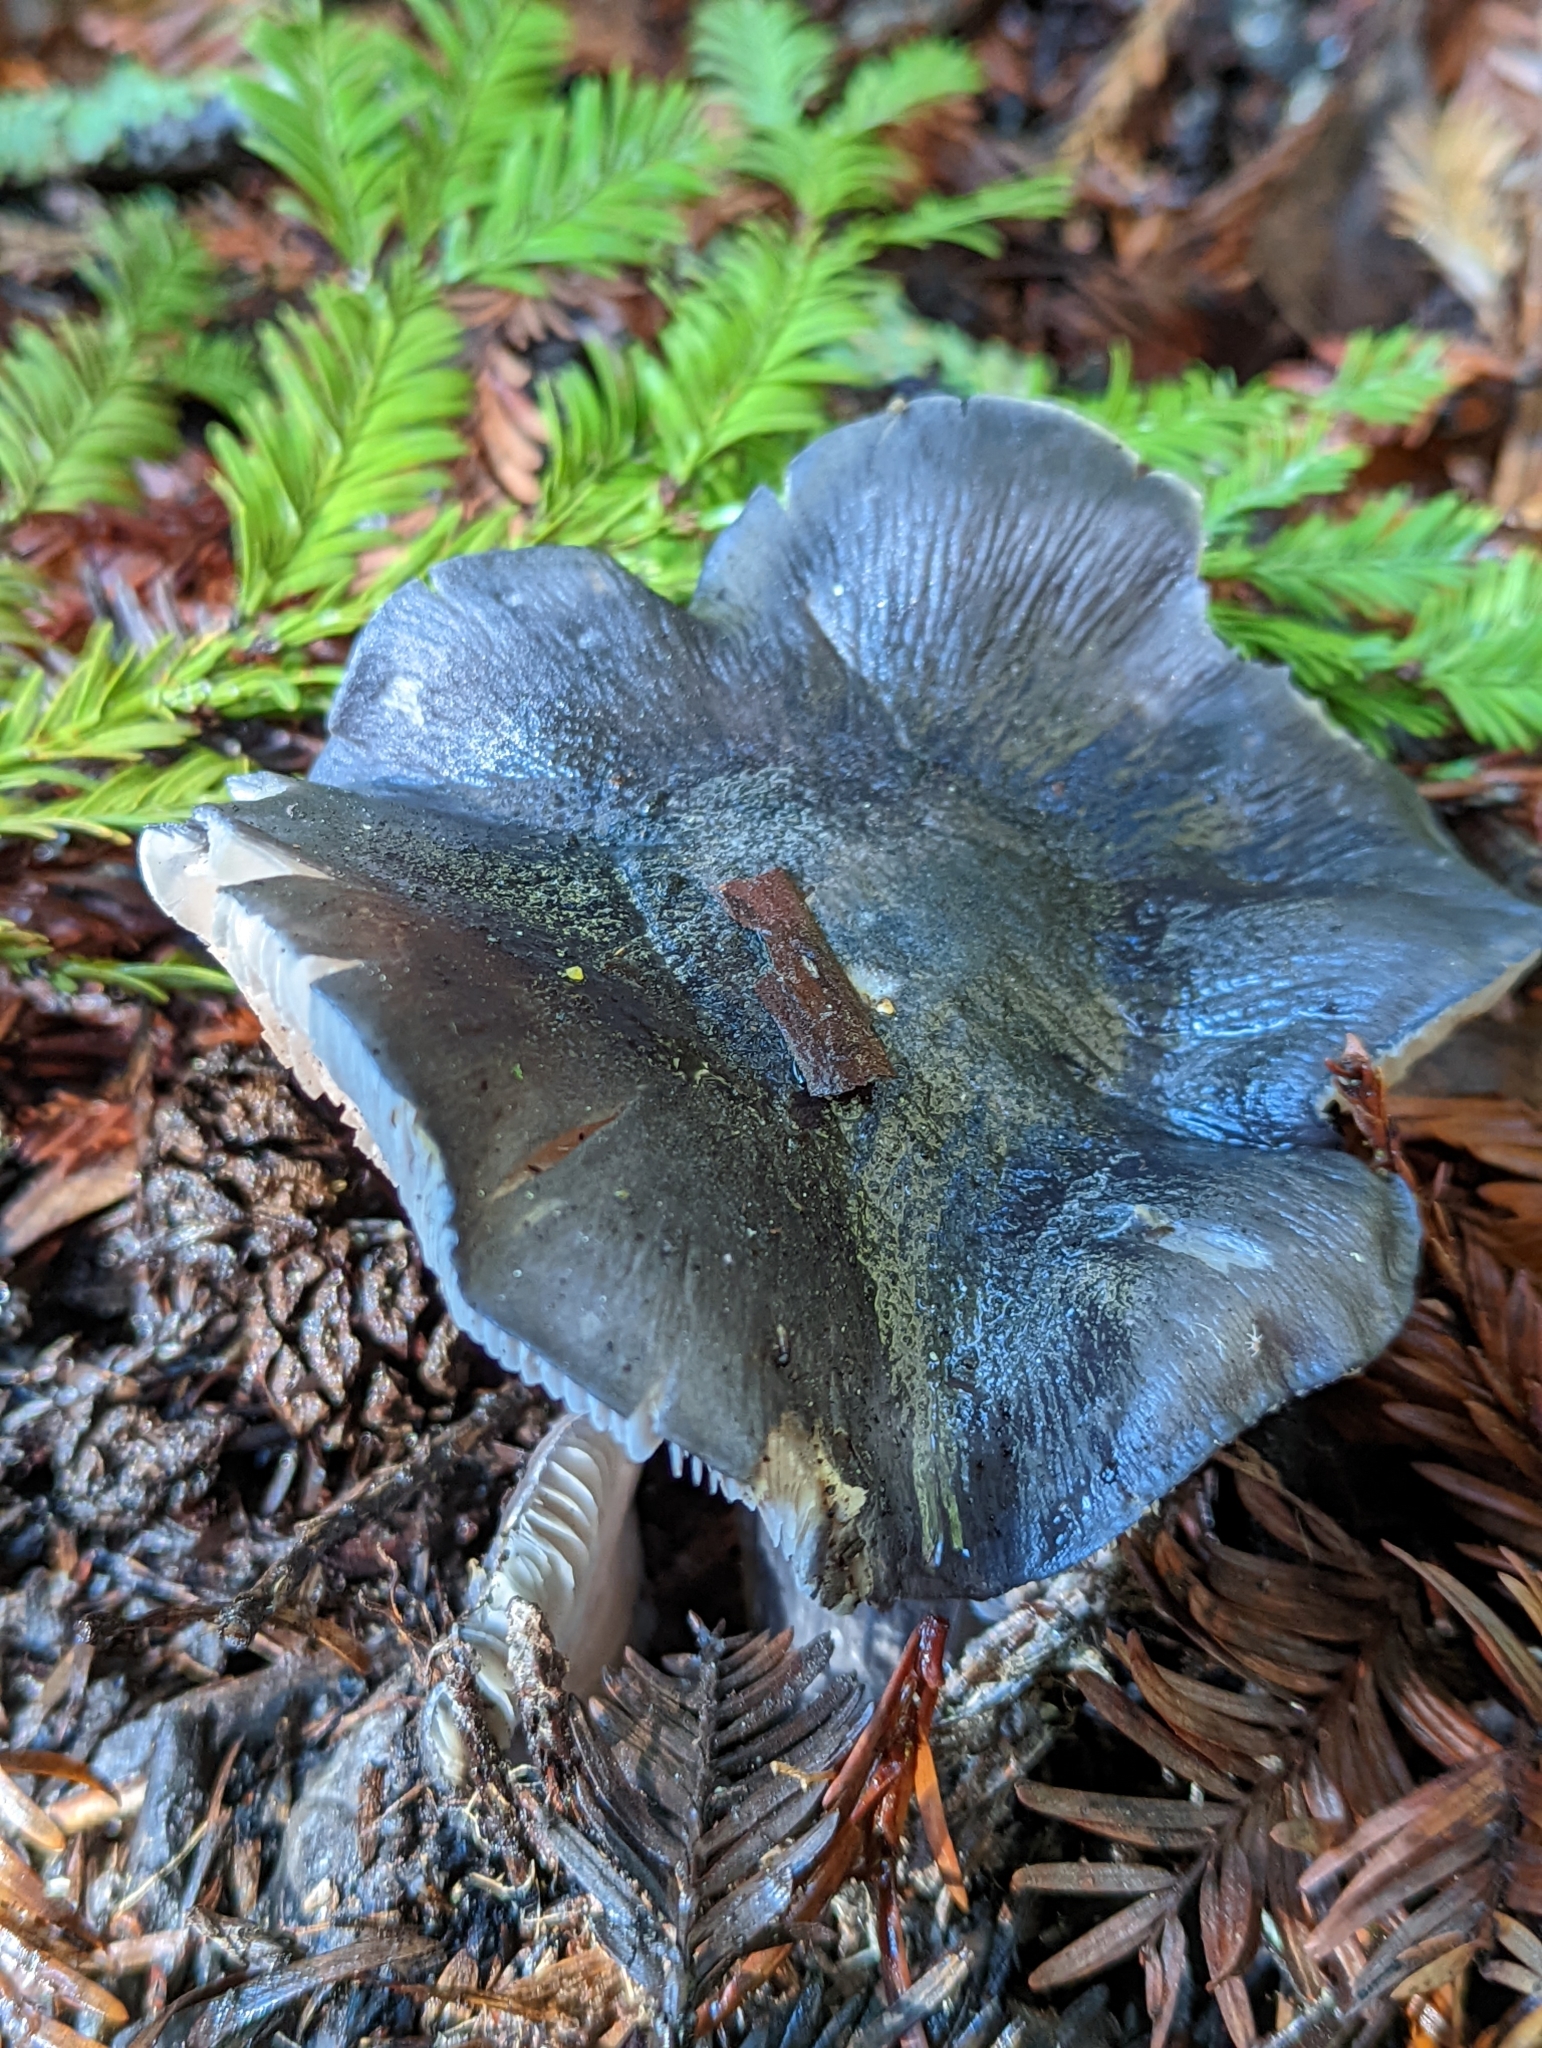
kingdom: Fungi
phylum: Basidiomycota
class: Agaricomycetes
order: Agaricales
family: Entolomataceae
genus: Entoloma
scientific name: Entoloma medianox
